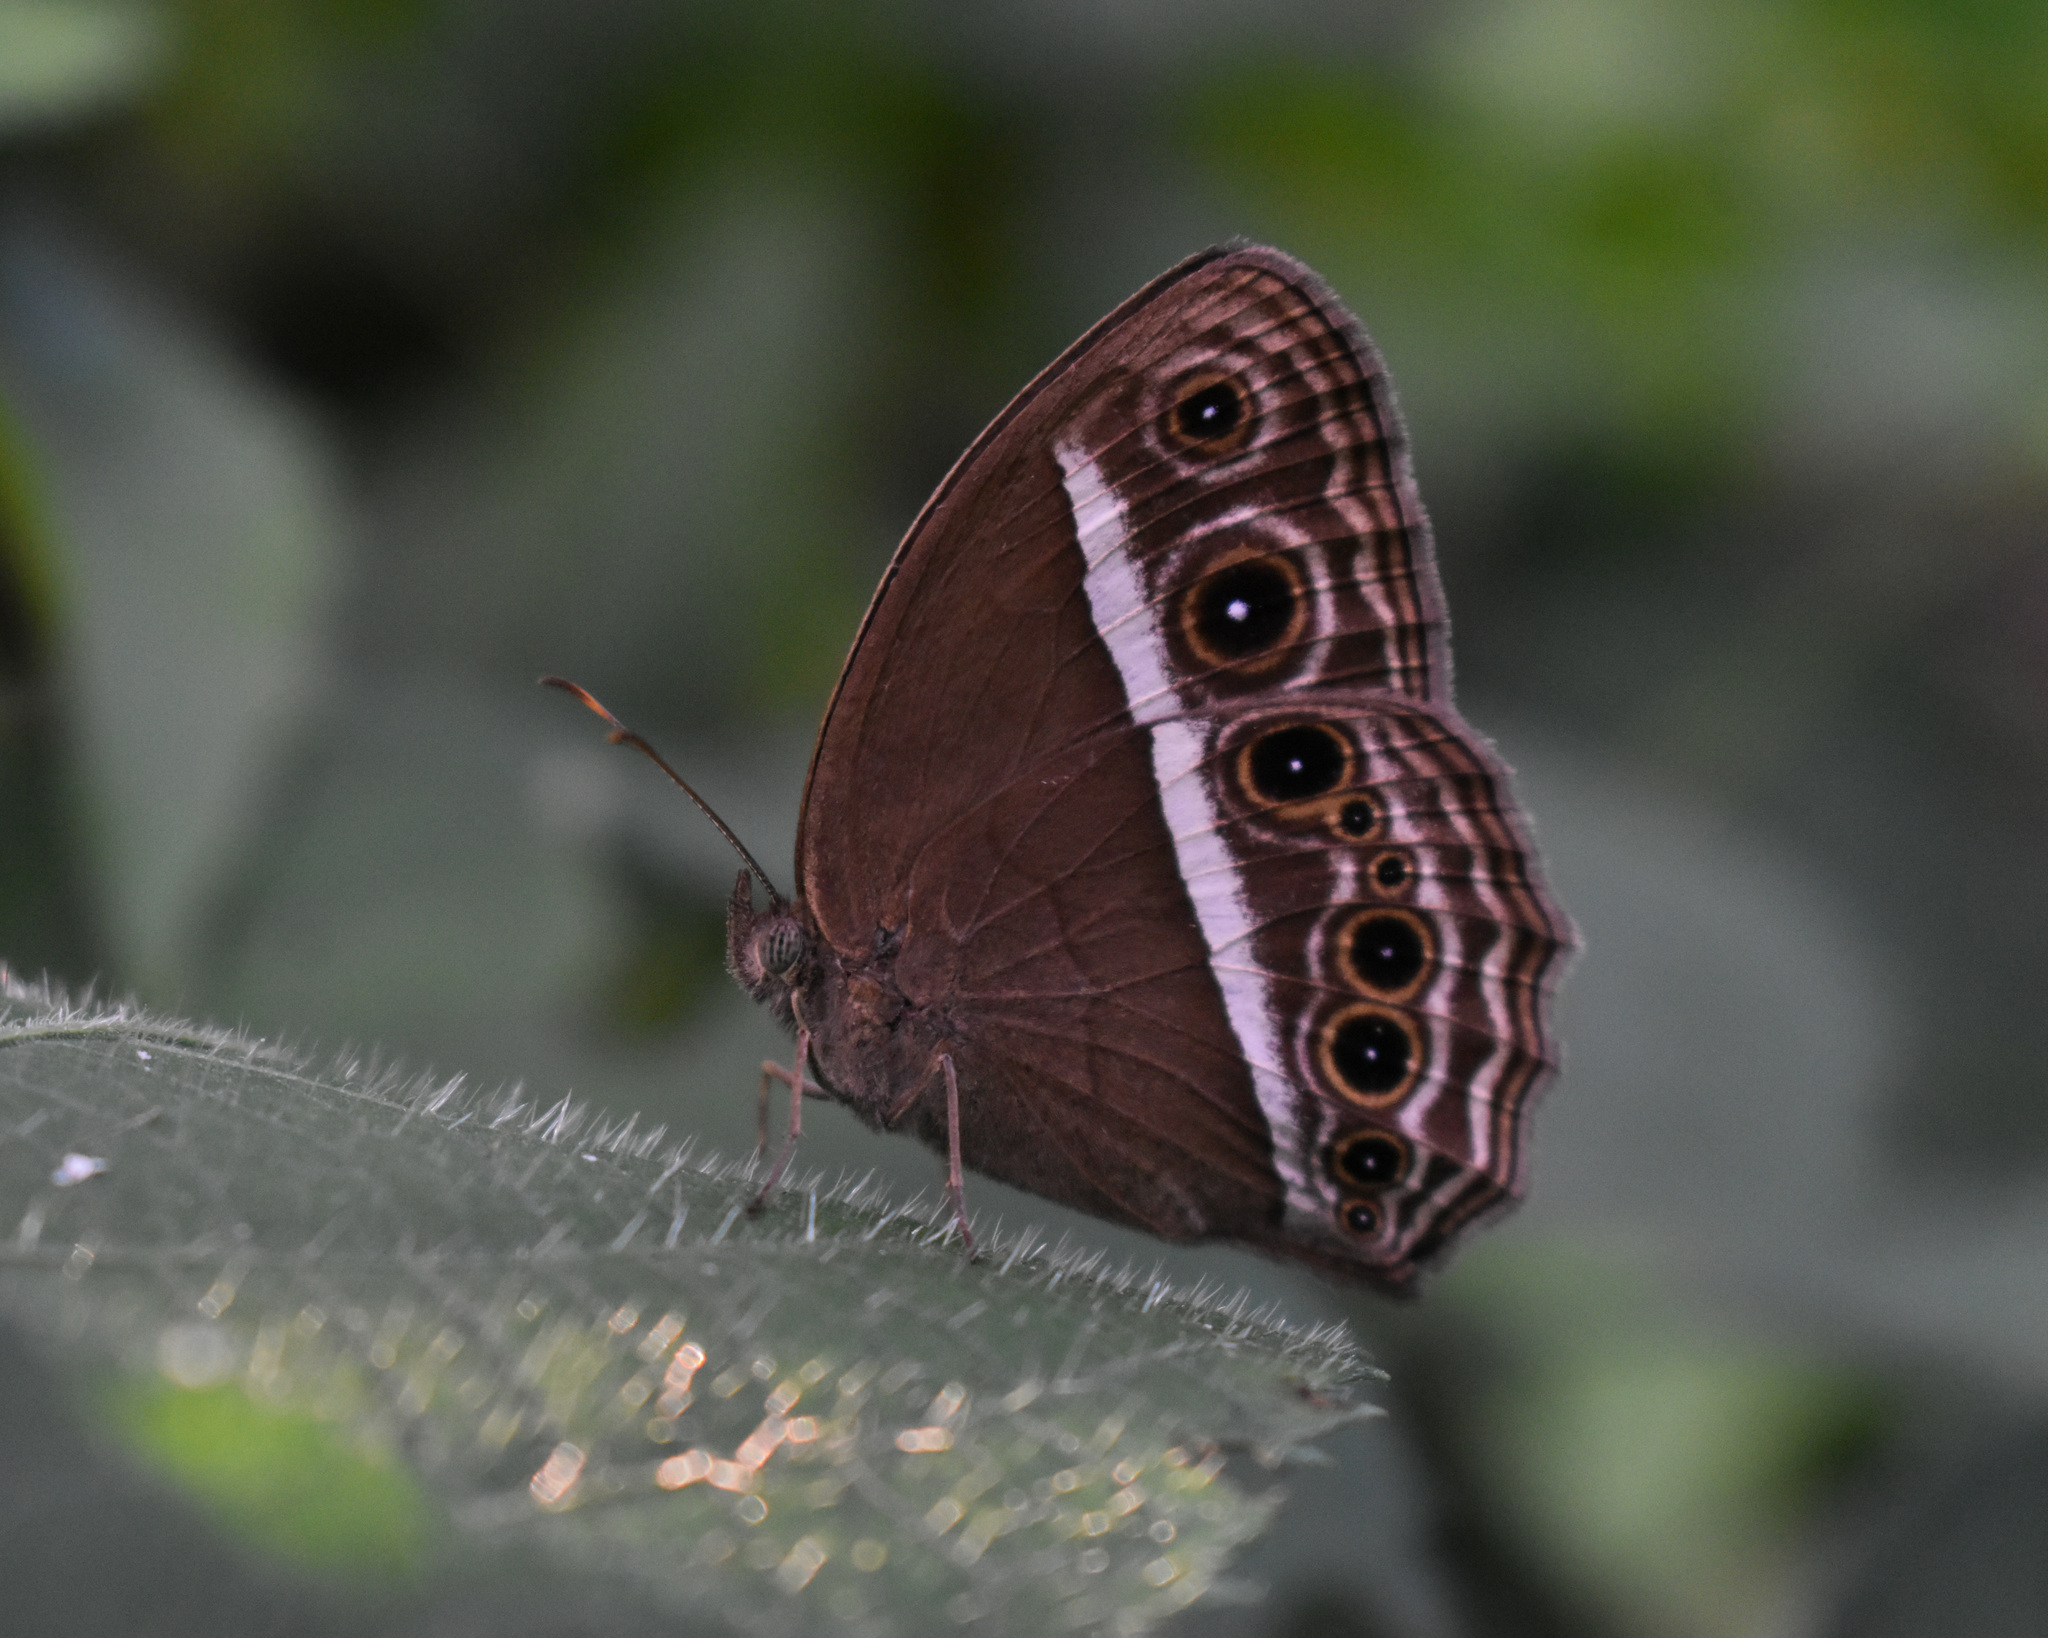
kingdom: Animalia
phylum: Arthropoda
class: Insecta
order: Lepidoptera
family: Nymphalidae
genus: Mycalesis
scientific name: Mycalesis mineus
